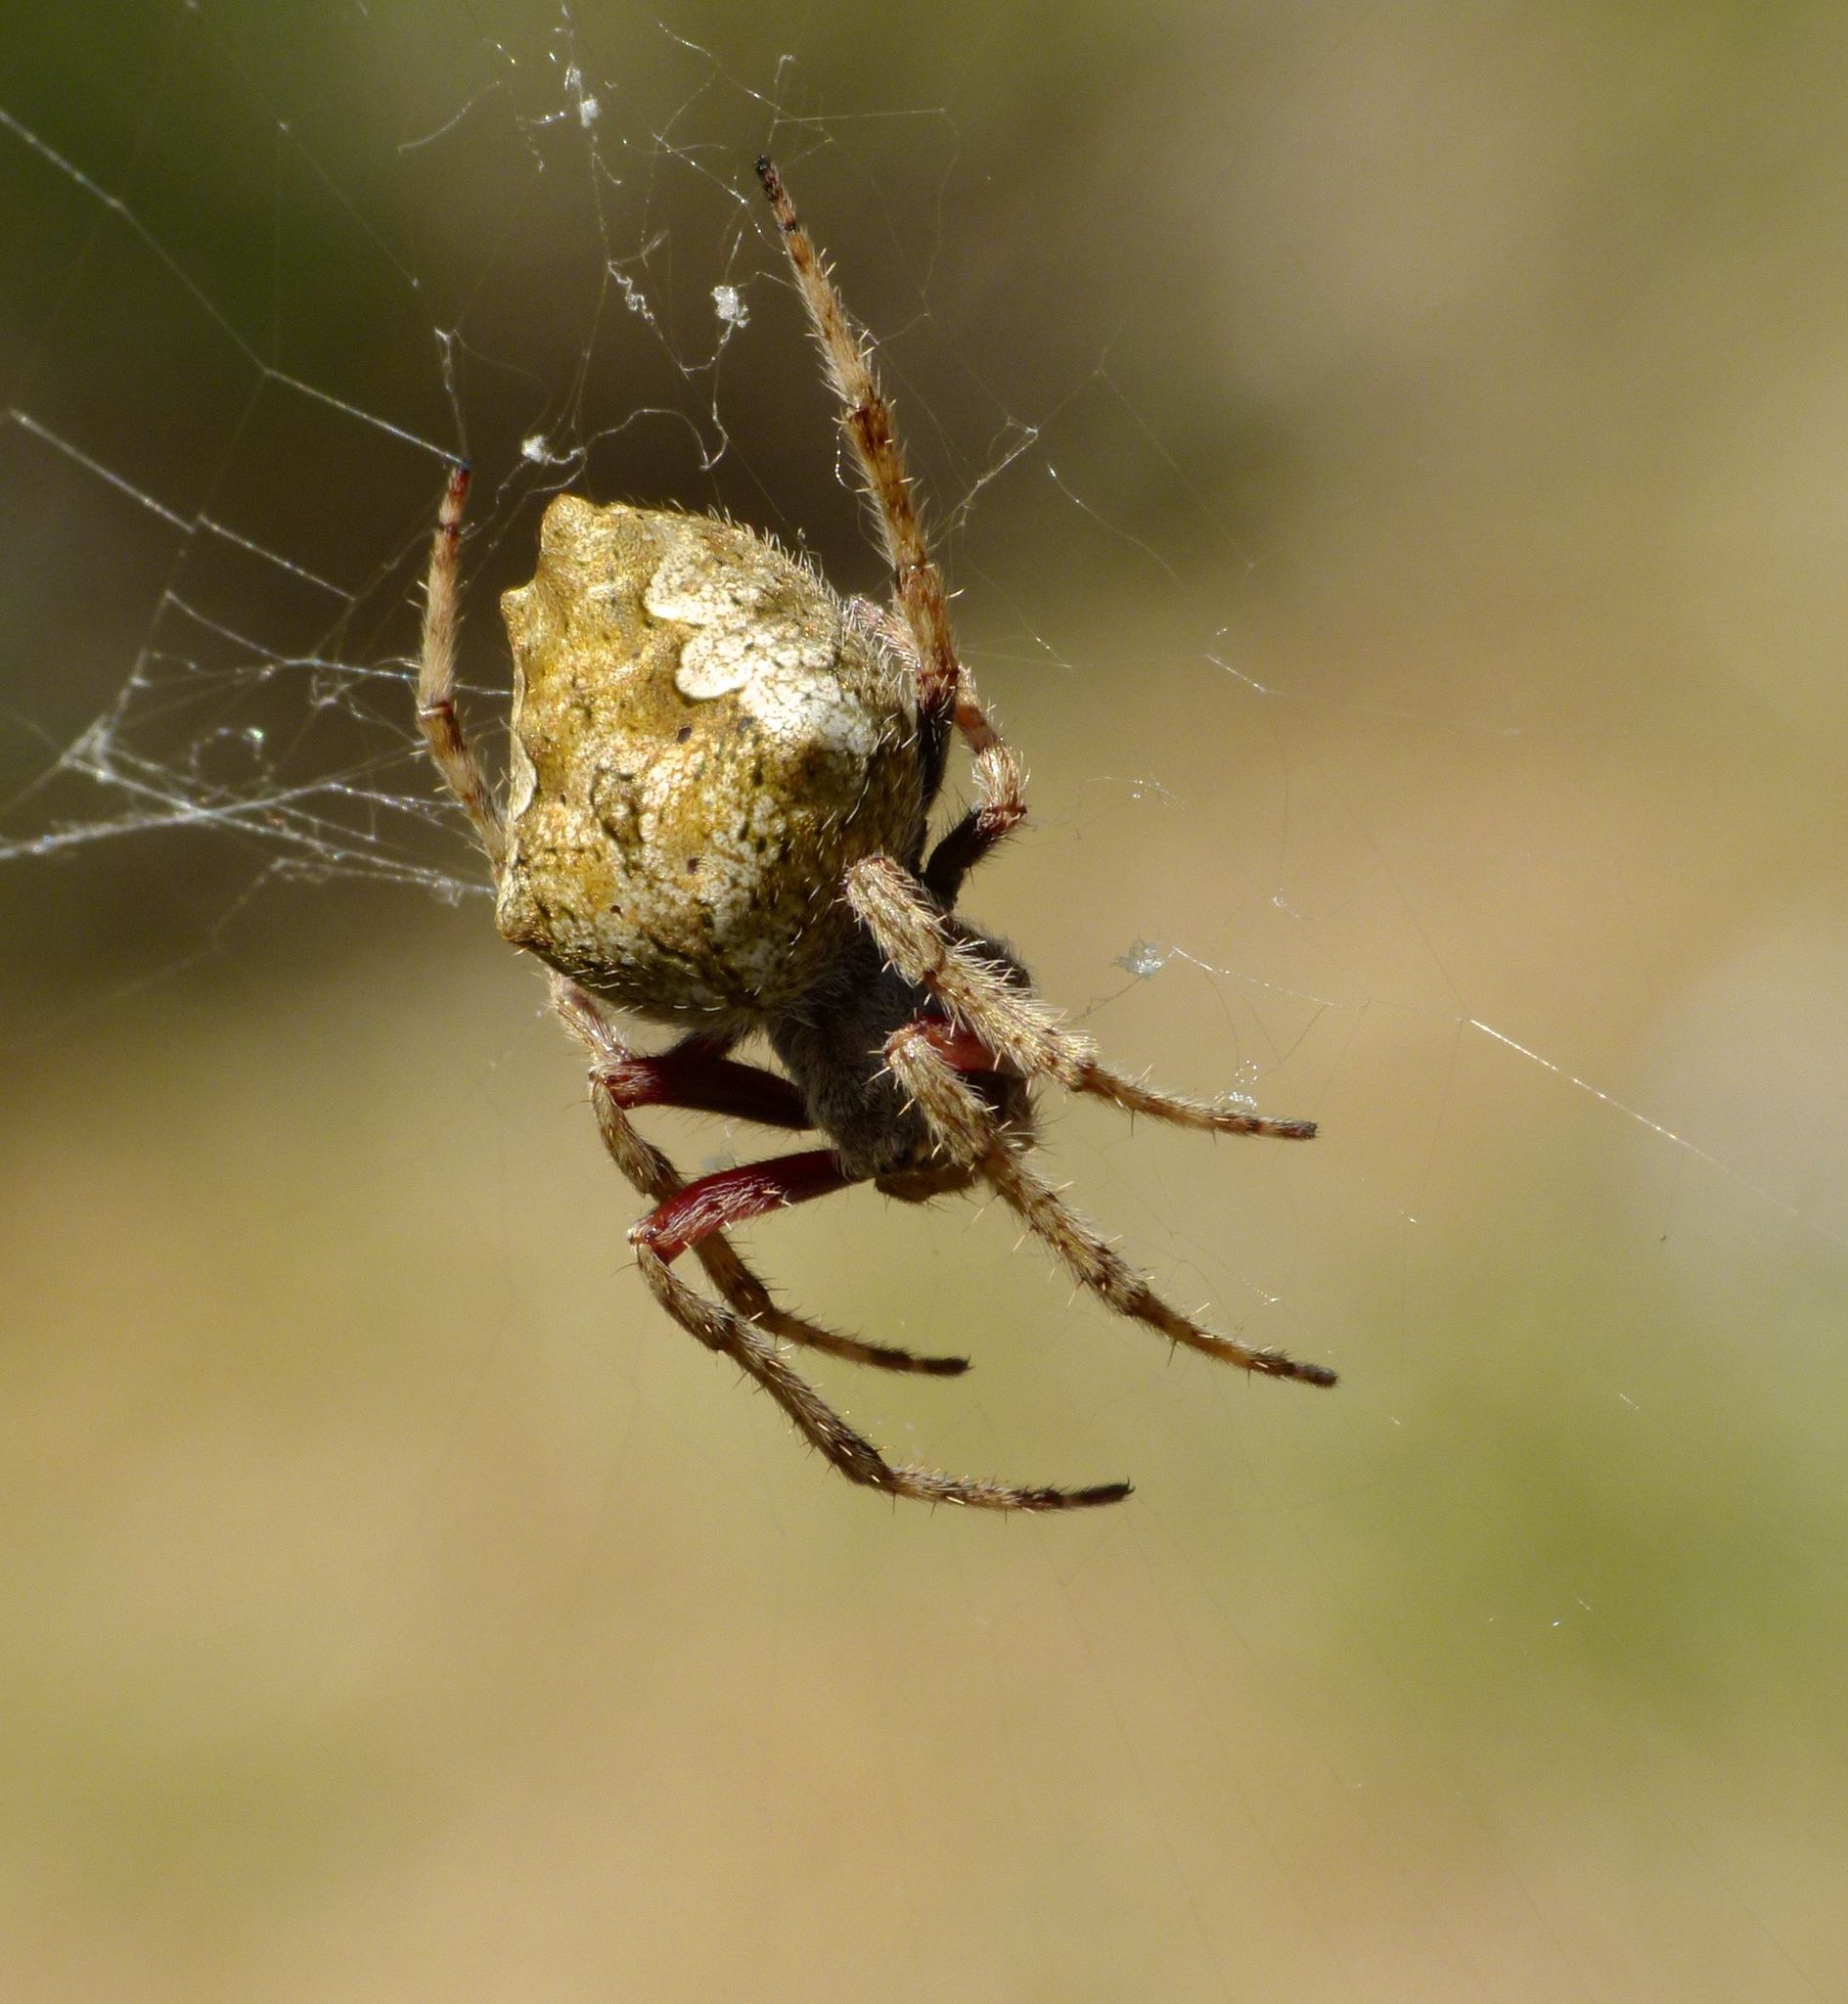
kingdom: Animalia
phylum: Arthropoda
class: Arachnida
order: Araneae
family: Araneidae
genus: Eriophora
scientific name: Eriophora pustulosa
